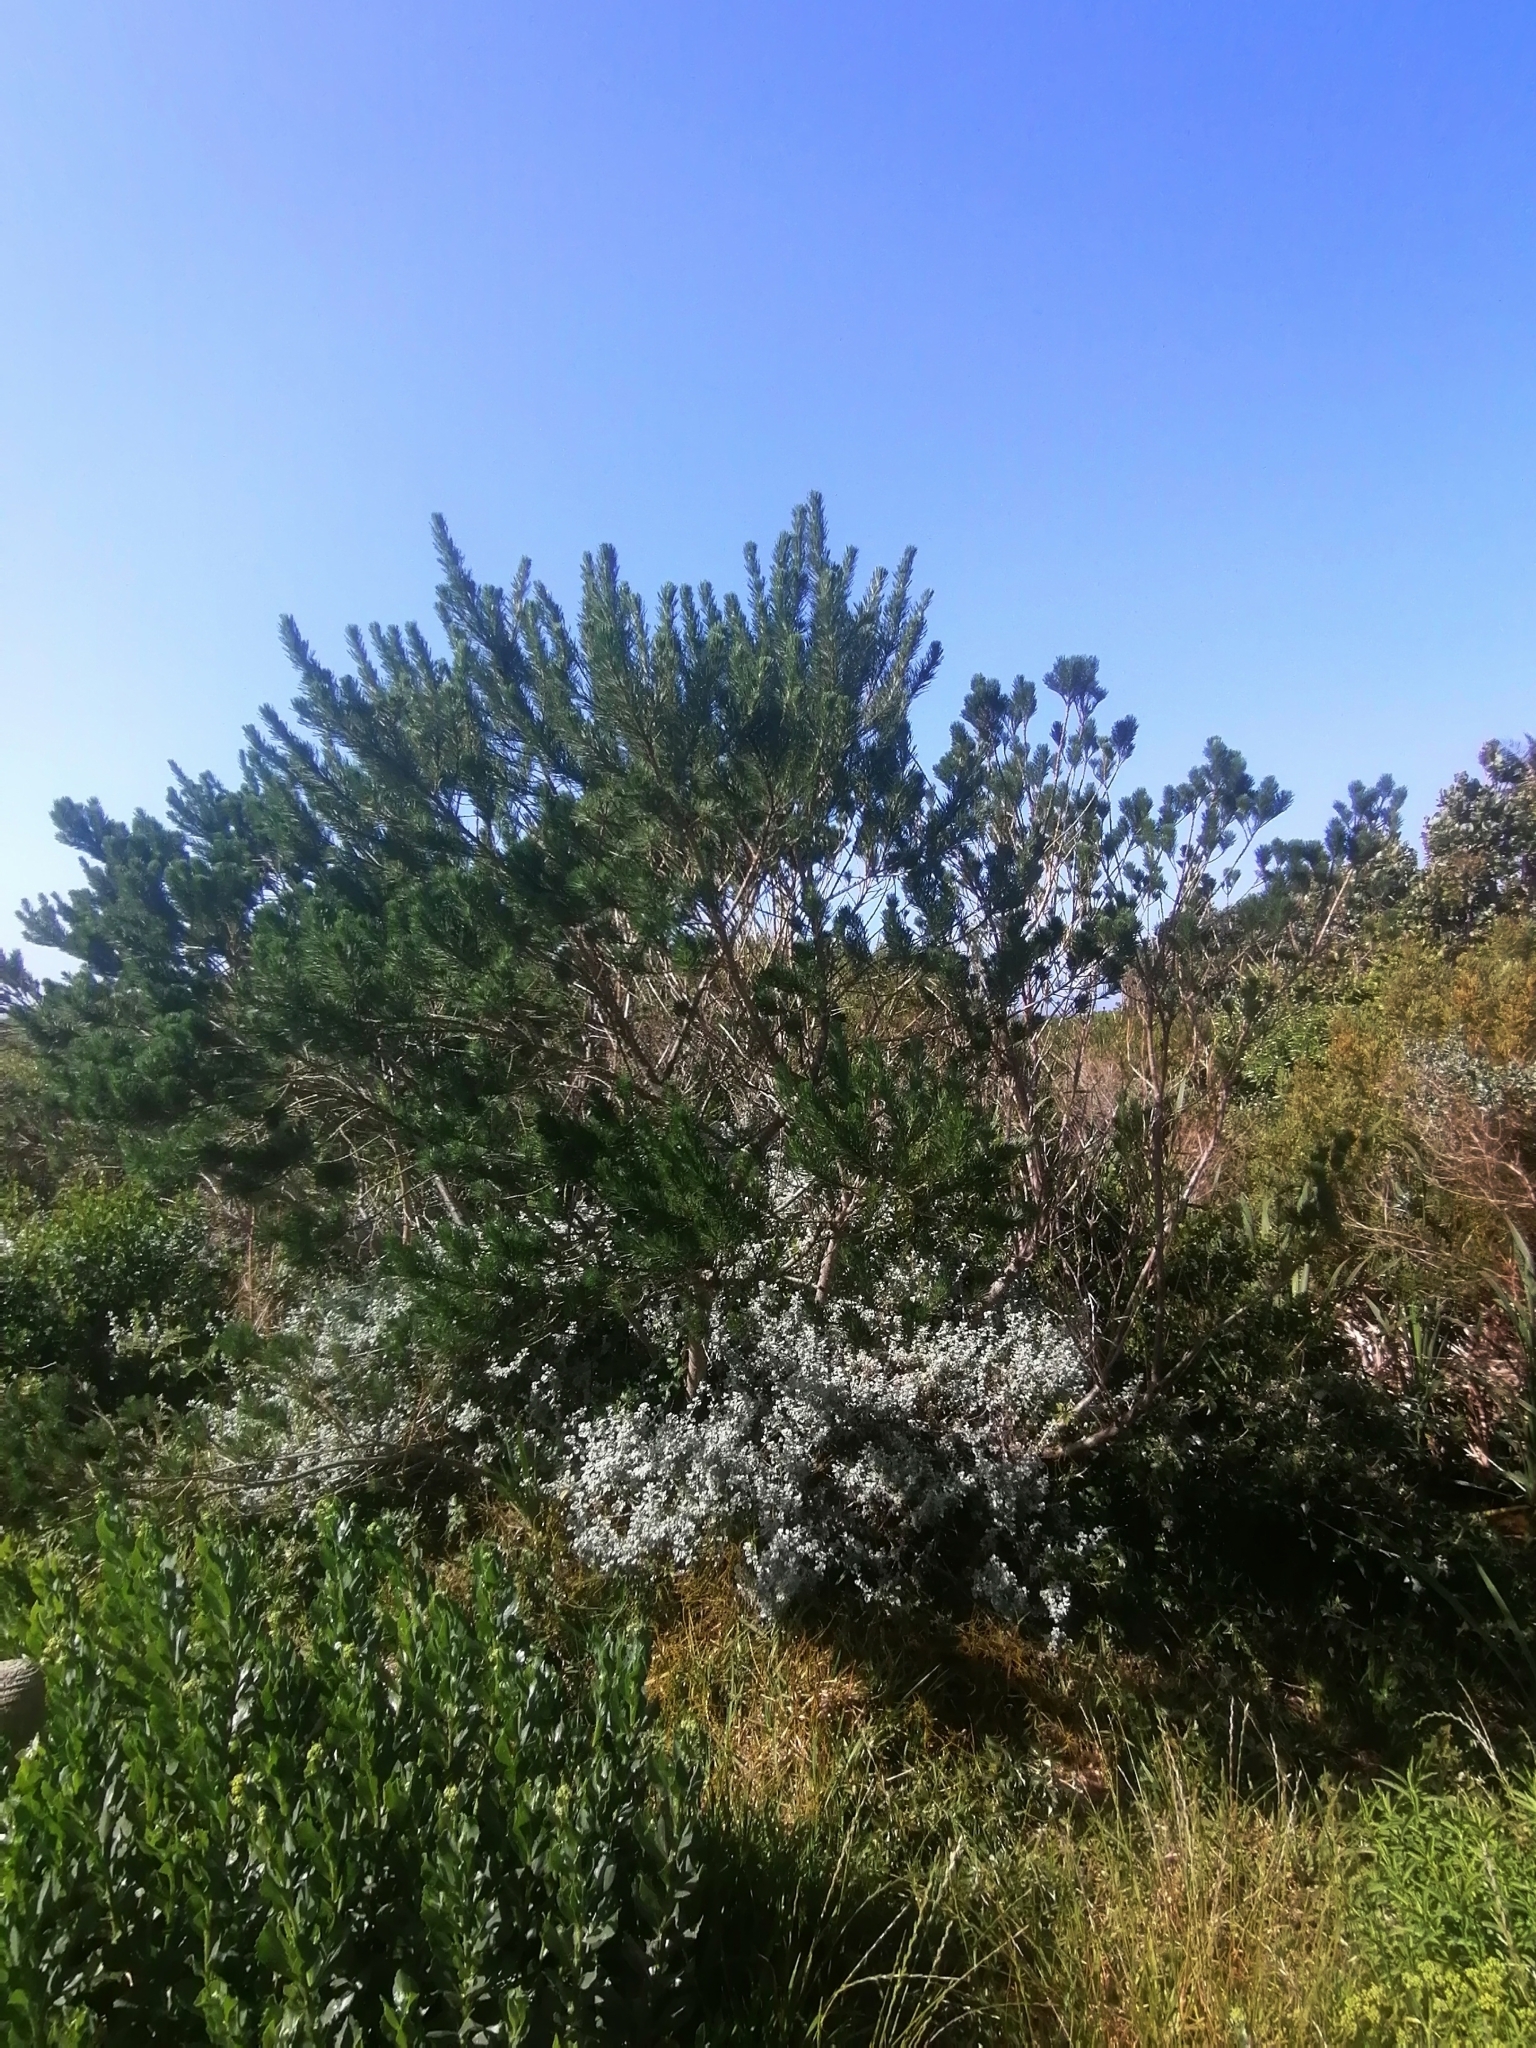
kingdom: Plantae
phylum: Tracheophyta
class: Magnoliopsida
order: Fabales
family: Fabaceae
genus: Psoralea
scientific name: Psoralea pinnata
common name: African scurfpea
